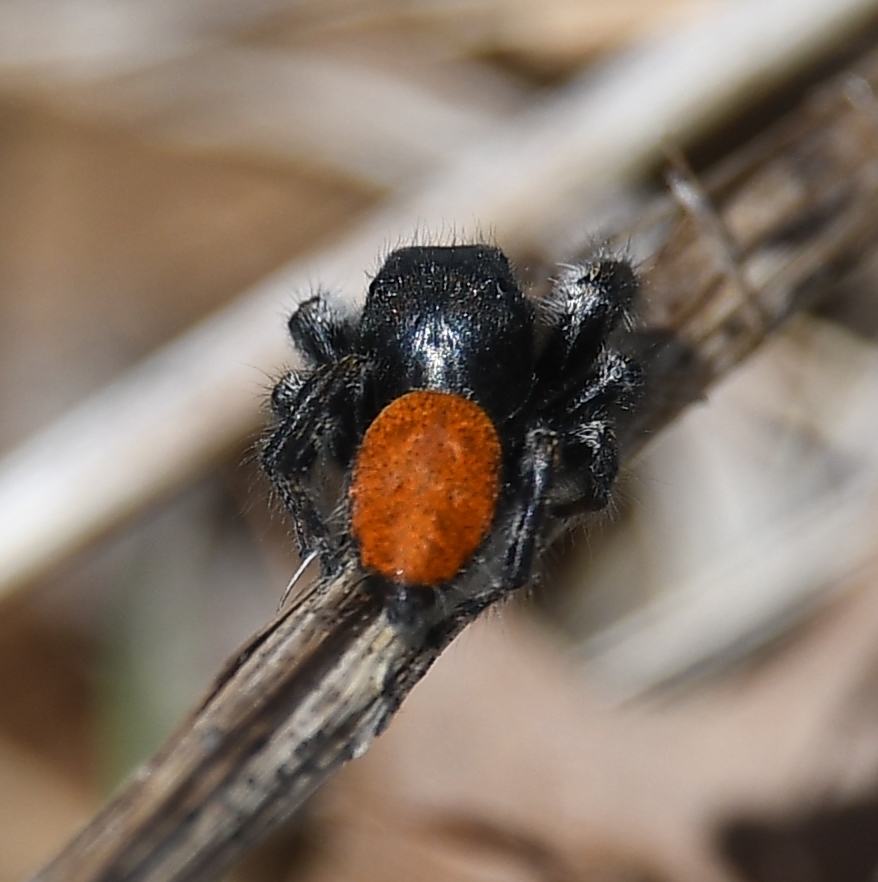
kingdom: Animalia
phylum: Arthropoda
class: Arachnida
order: Araneae
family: Salticidae
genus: Phidippus
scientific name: Phidippus princeps
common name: Grayish jumping spider
